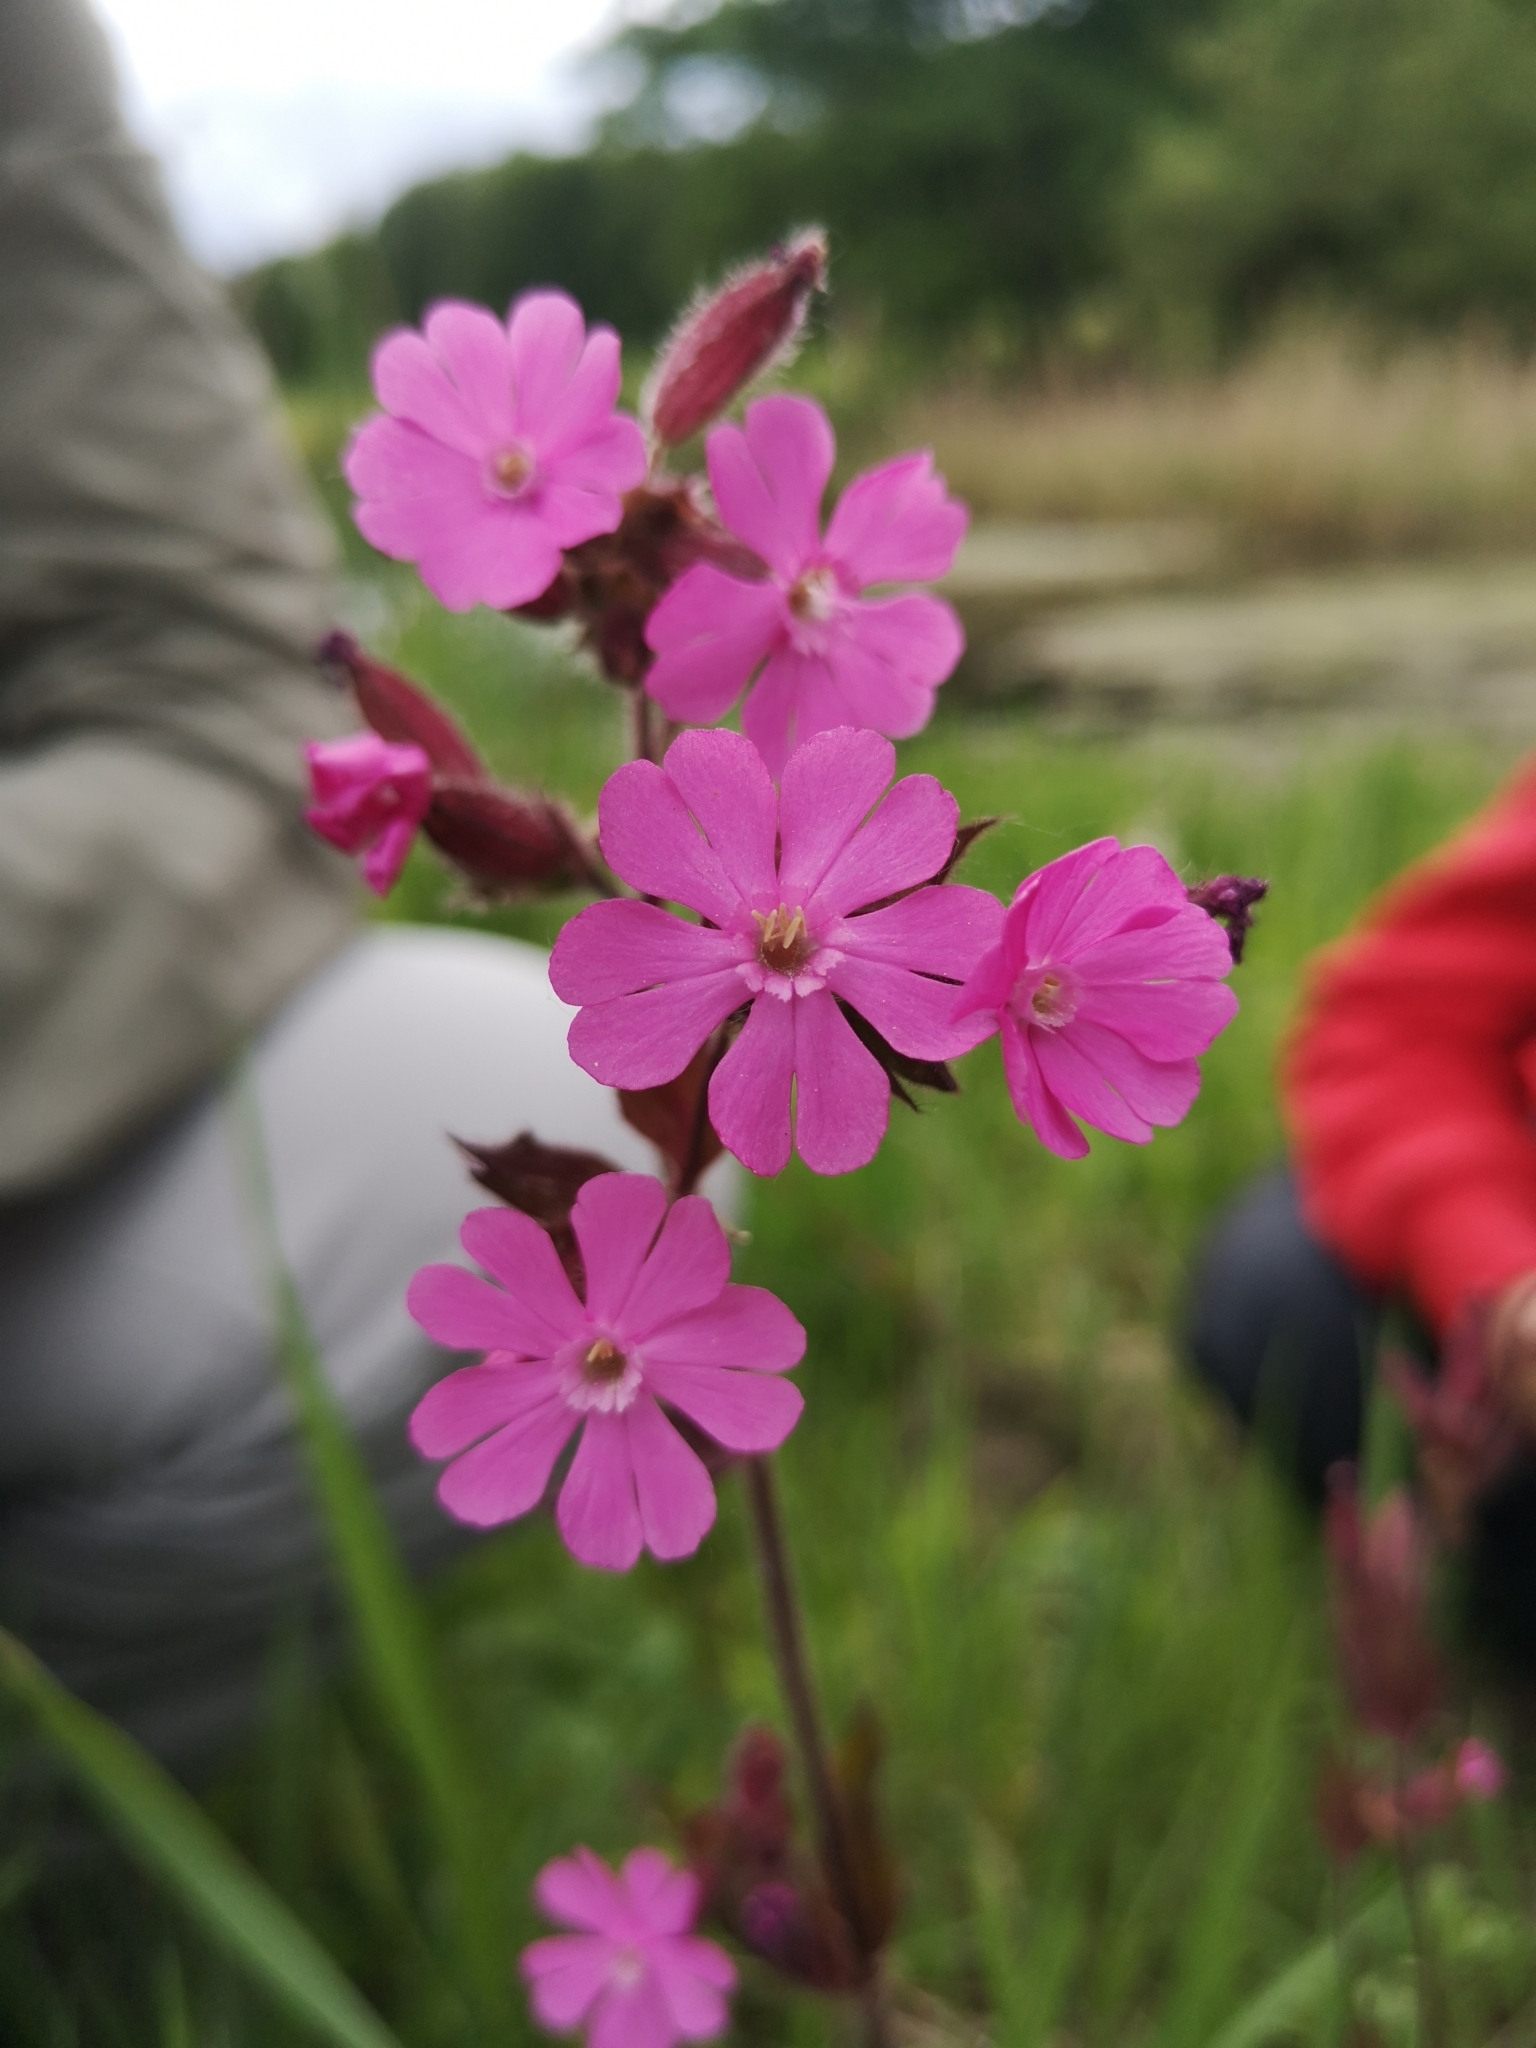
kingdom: Plantae
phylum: Tracheophyta
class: Magnoliopsida
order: Caryophyllales
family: Caryophyllaceae
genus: Silene
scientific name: Silene dioica
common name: Red campion
